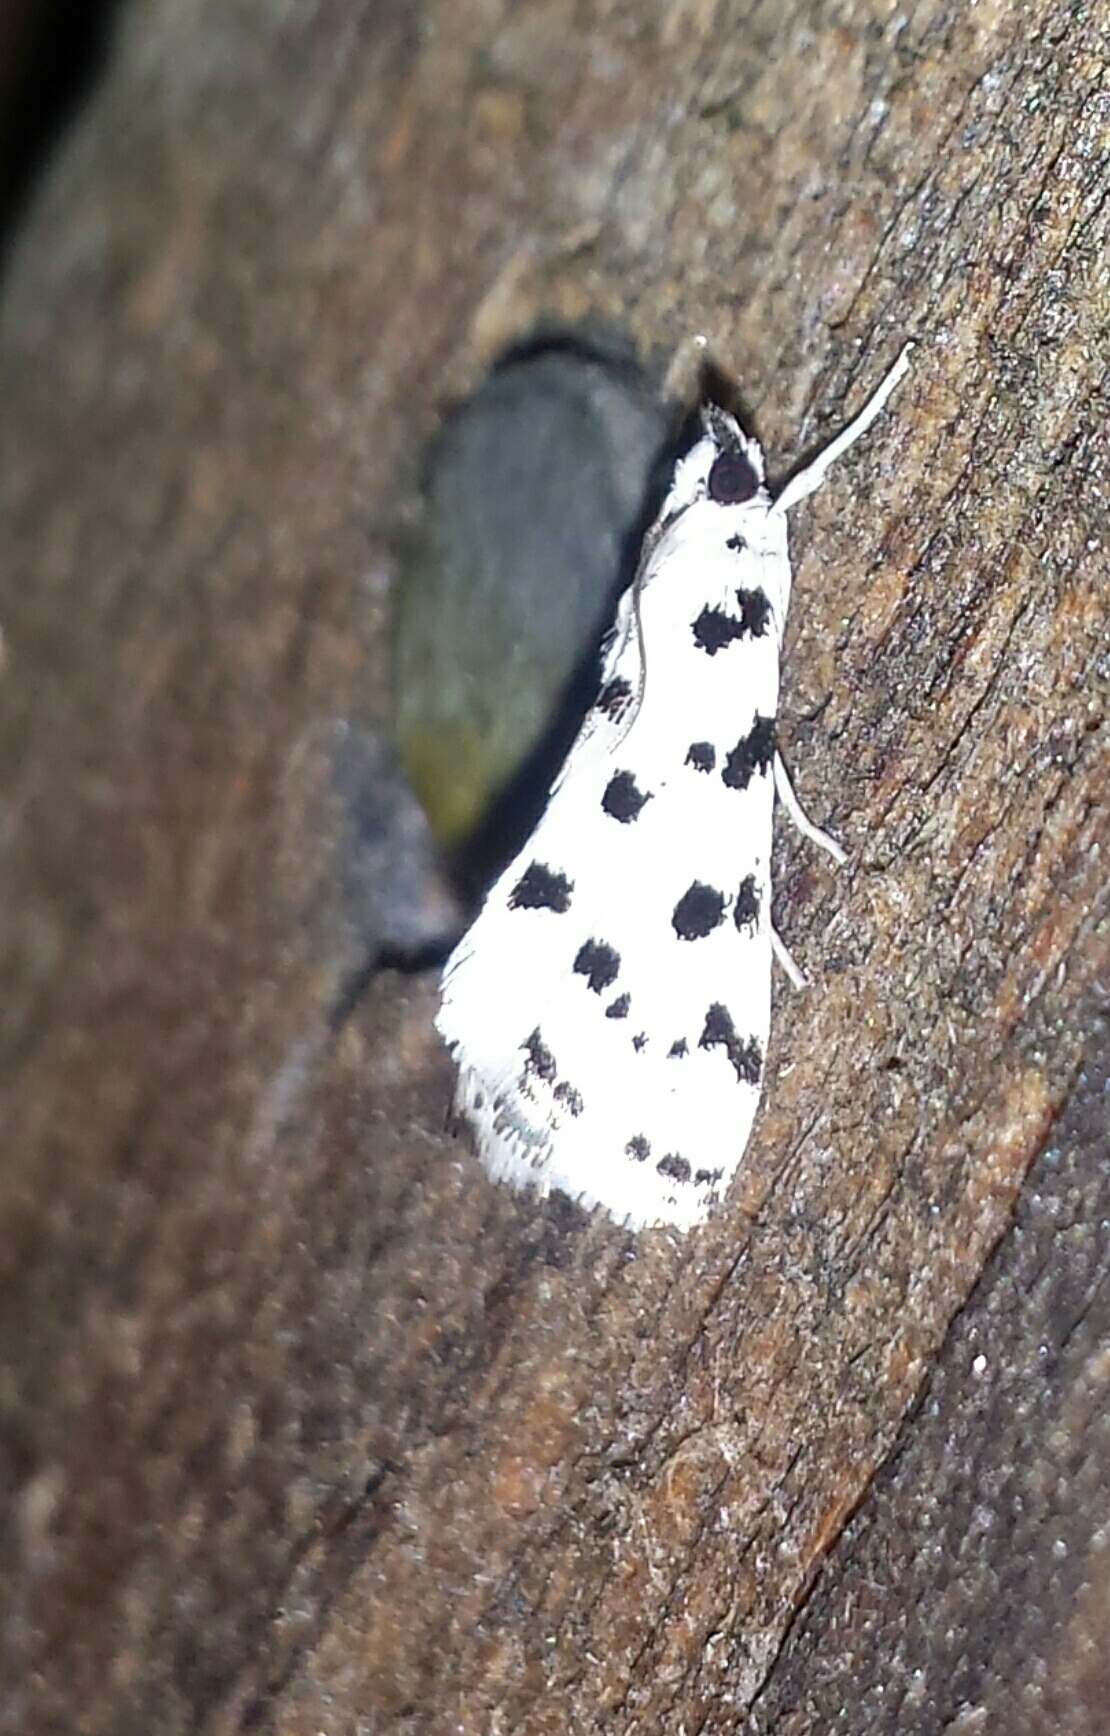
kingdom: Animalia
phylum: Arthropoda
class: Insecta
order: Lepidoptera
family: Crambidae
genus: Eustixia
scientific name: Eustixia pupula
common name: American cabbage pearl
